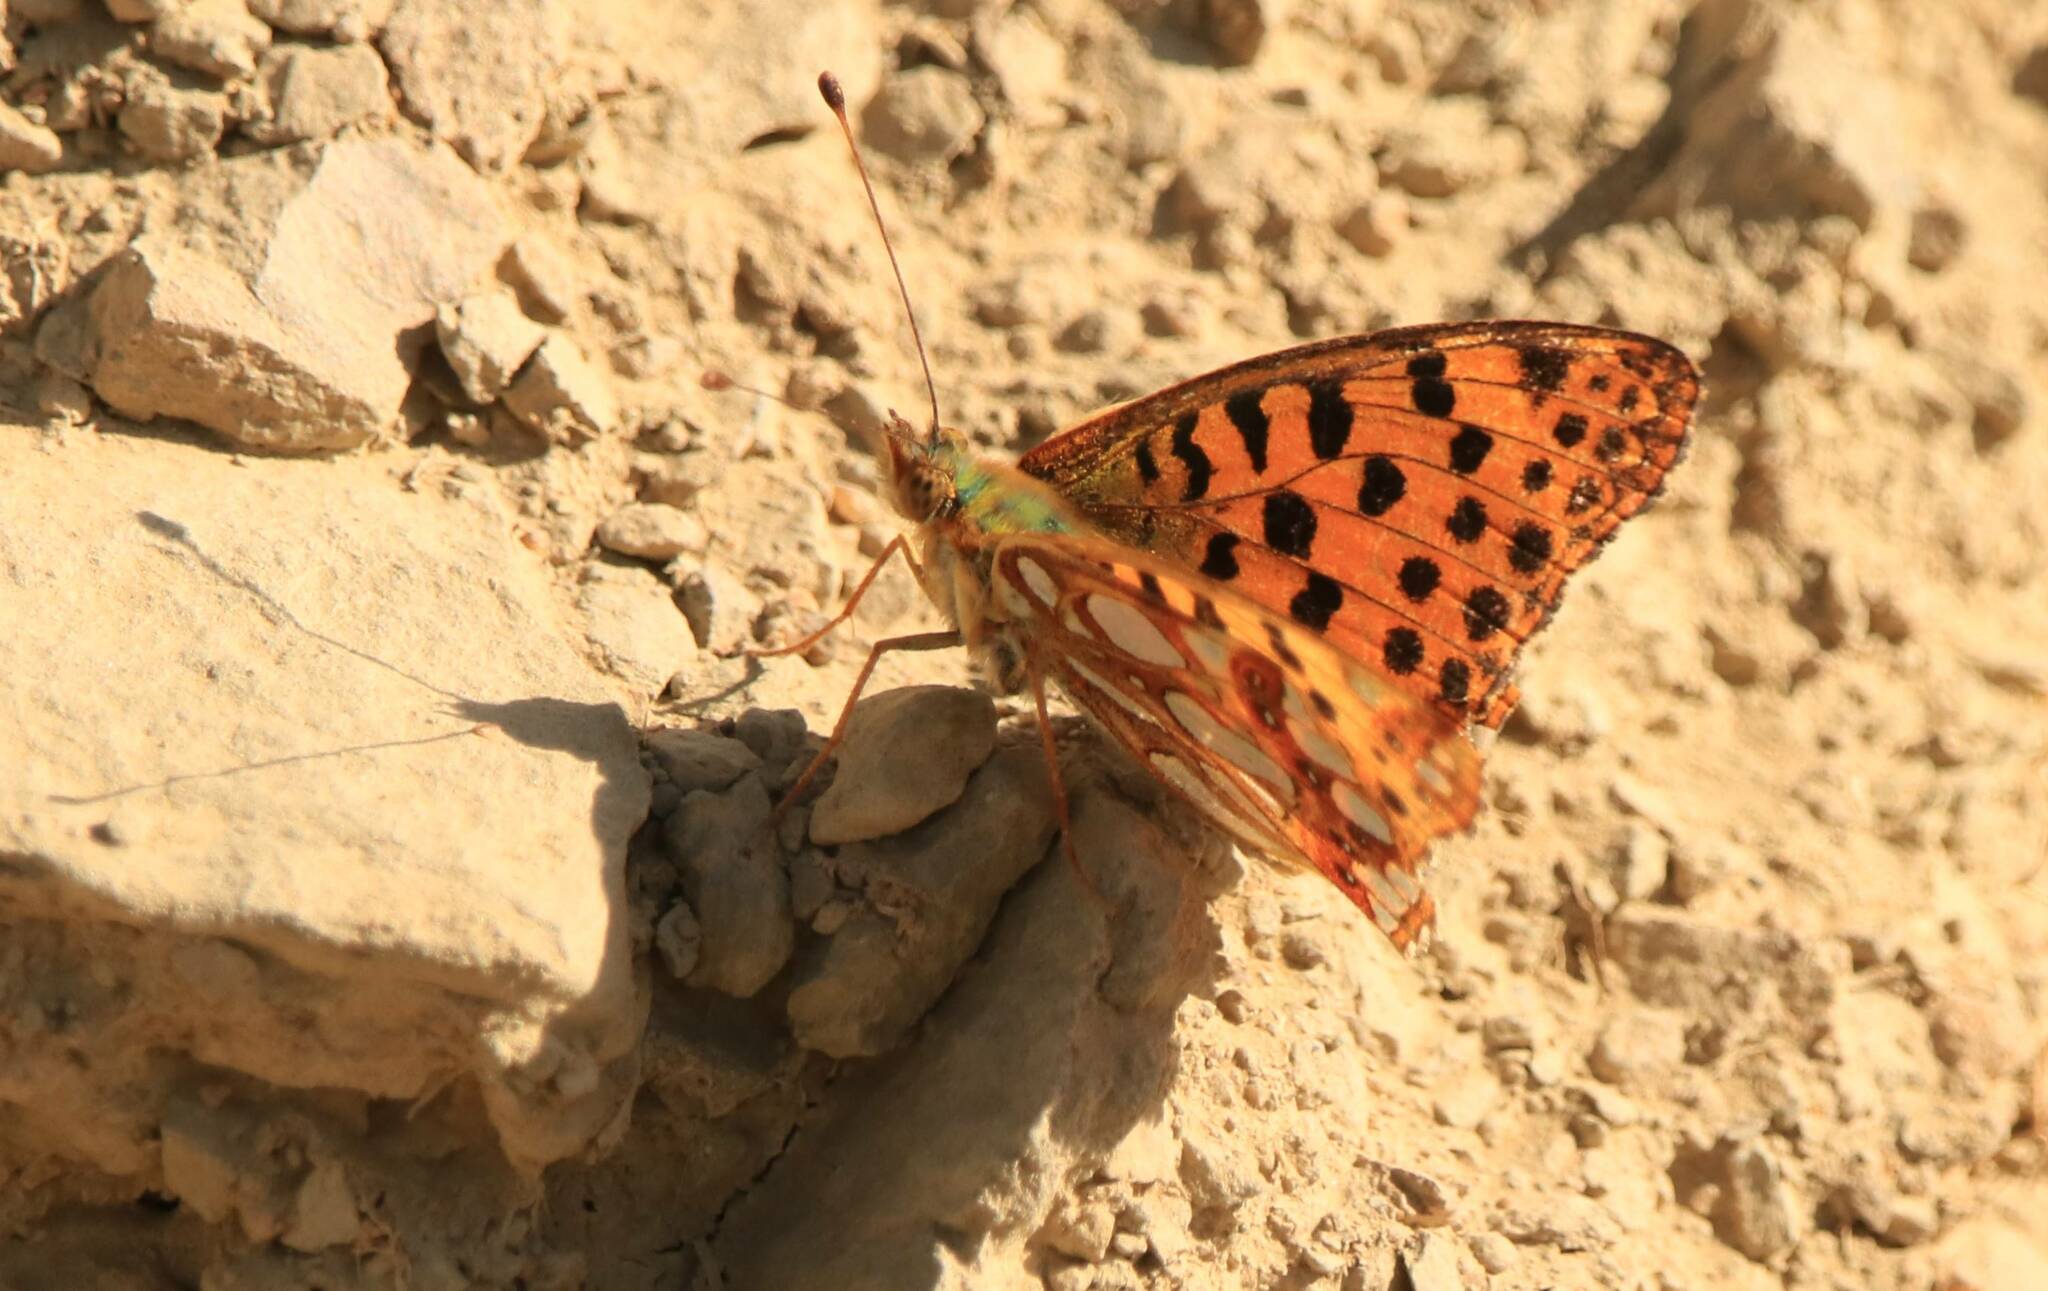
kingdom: Animalia
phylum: Arthropoda
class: Insecta
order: Lepidoptera
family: Nymphalidae
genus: Issoria
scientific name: Issoria lathonia
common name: Queen of spain fritillary
